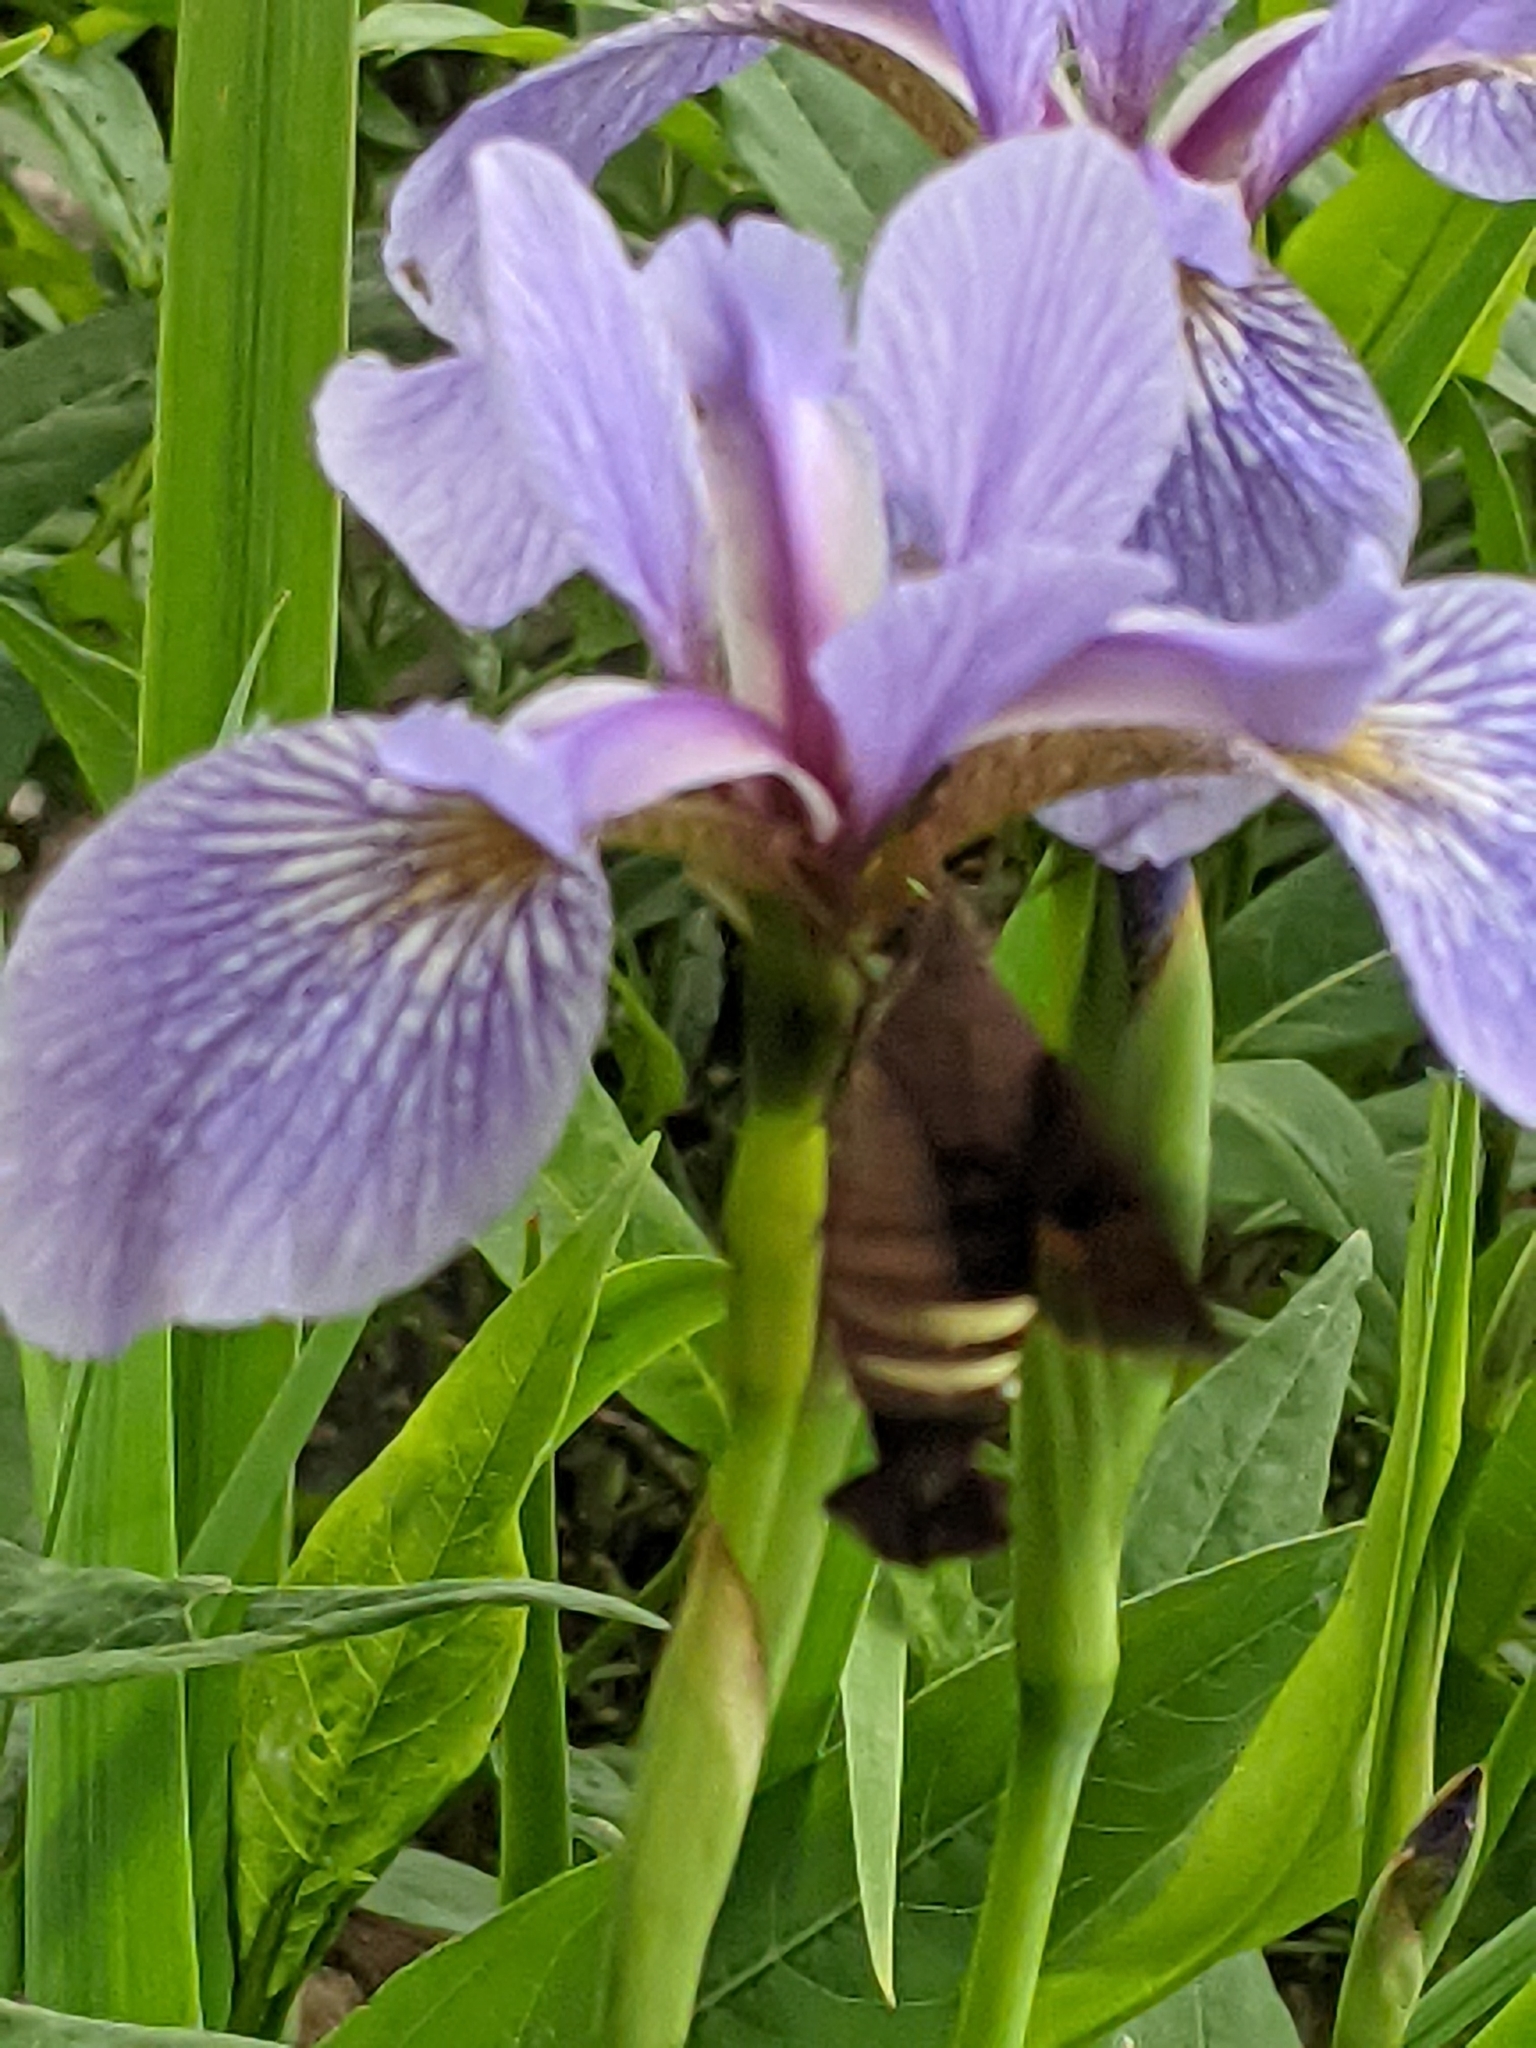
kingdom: Animalia
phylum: Arthropoda
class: Insecta
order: Lepidoptera
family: Sphingidae
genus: Amphion
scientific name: Amphion floridensis
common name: Nessus sphinx
